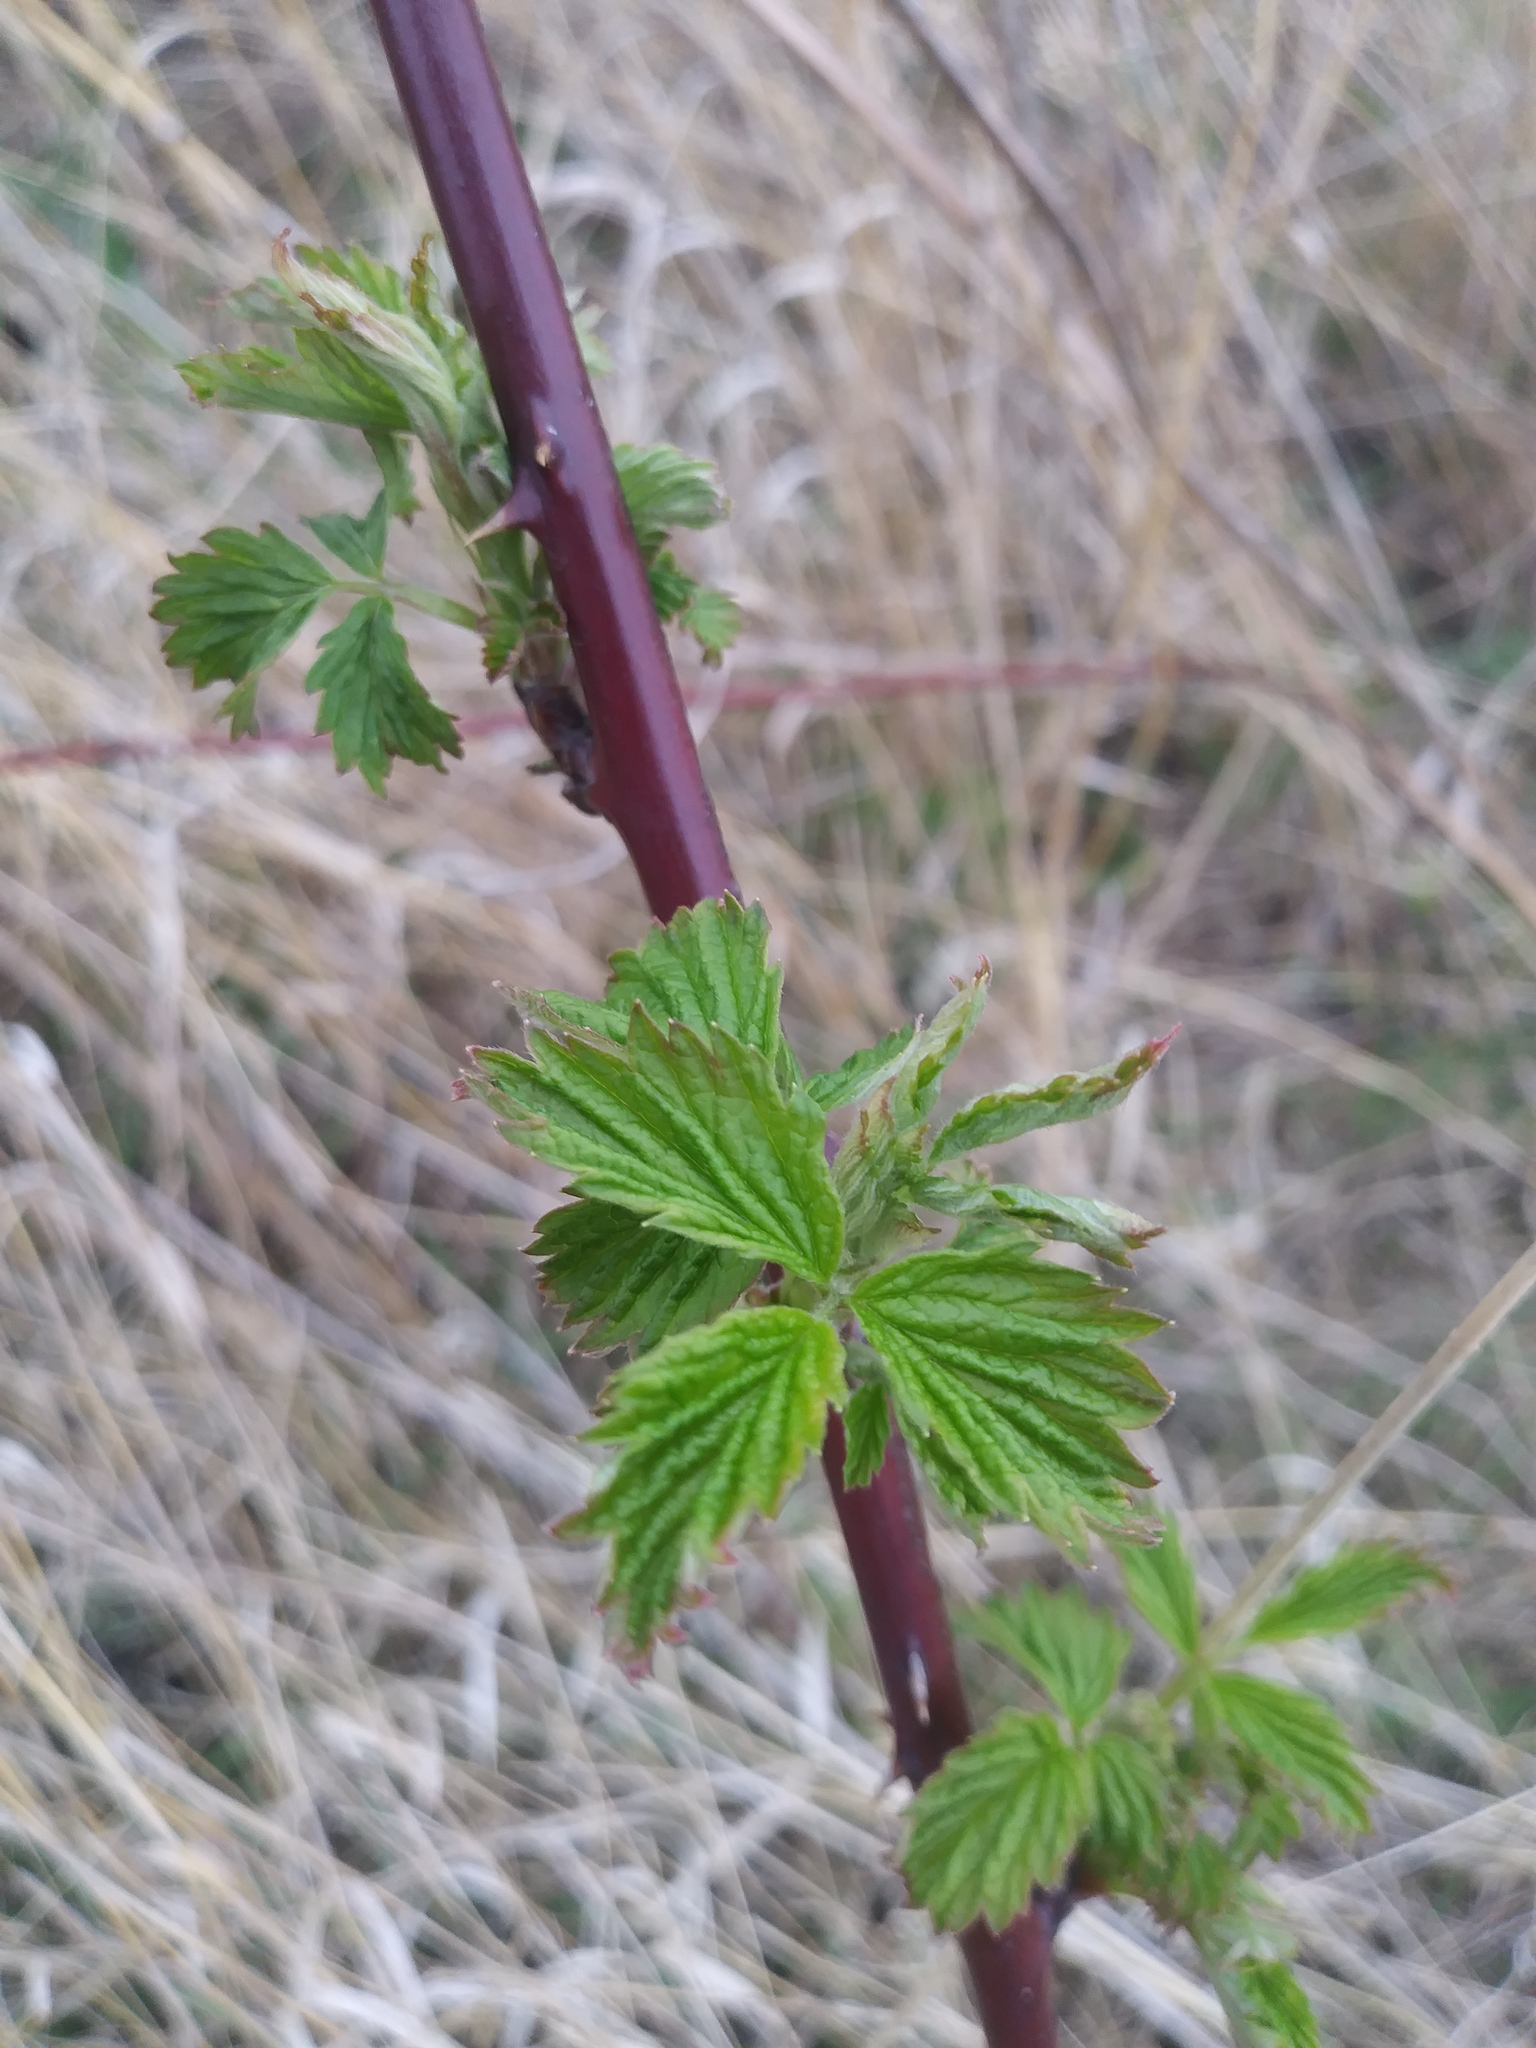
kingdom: Plantae
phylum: Tracheophyta
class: Magnoliopsida
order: Rosales
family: Rosaceae
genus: Rubus
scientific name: Rubus occidentalis
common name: Black raspberry
